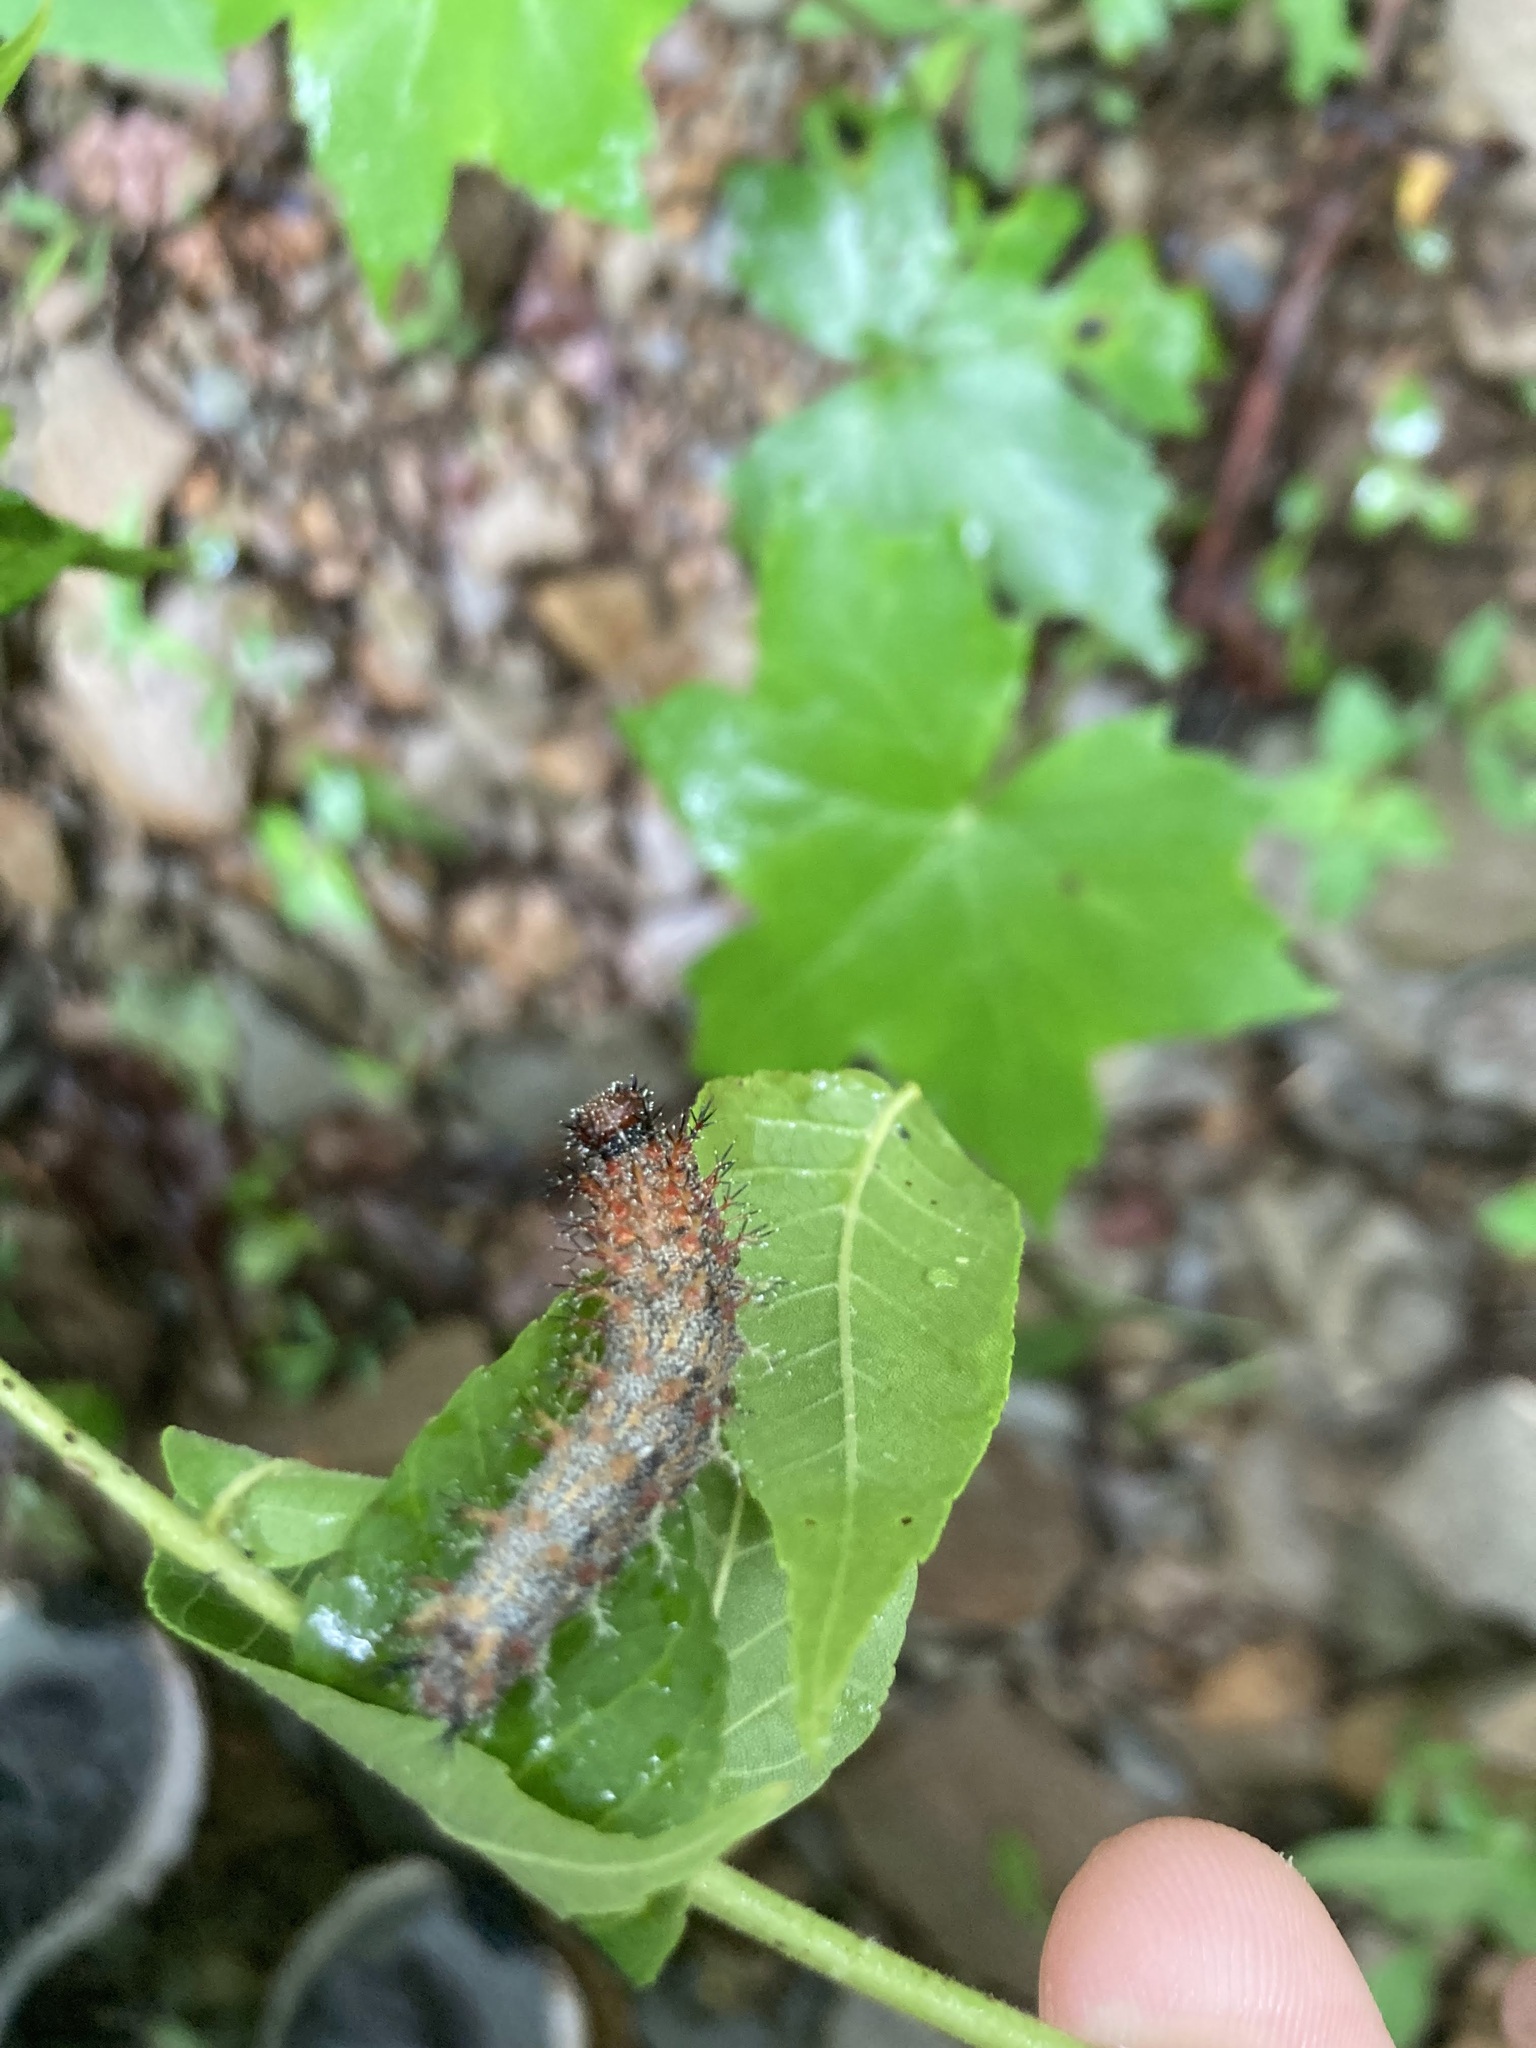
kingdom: Animalia
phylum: Arthropoda
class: Insecta
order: Lepidoptera
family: Nymphalidae
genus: Polygonia
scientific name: Polygonia interrogationis
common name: Question mark
